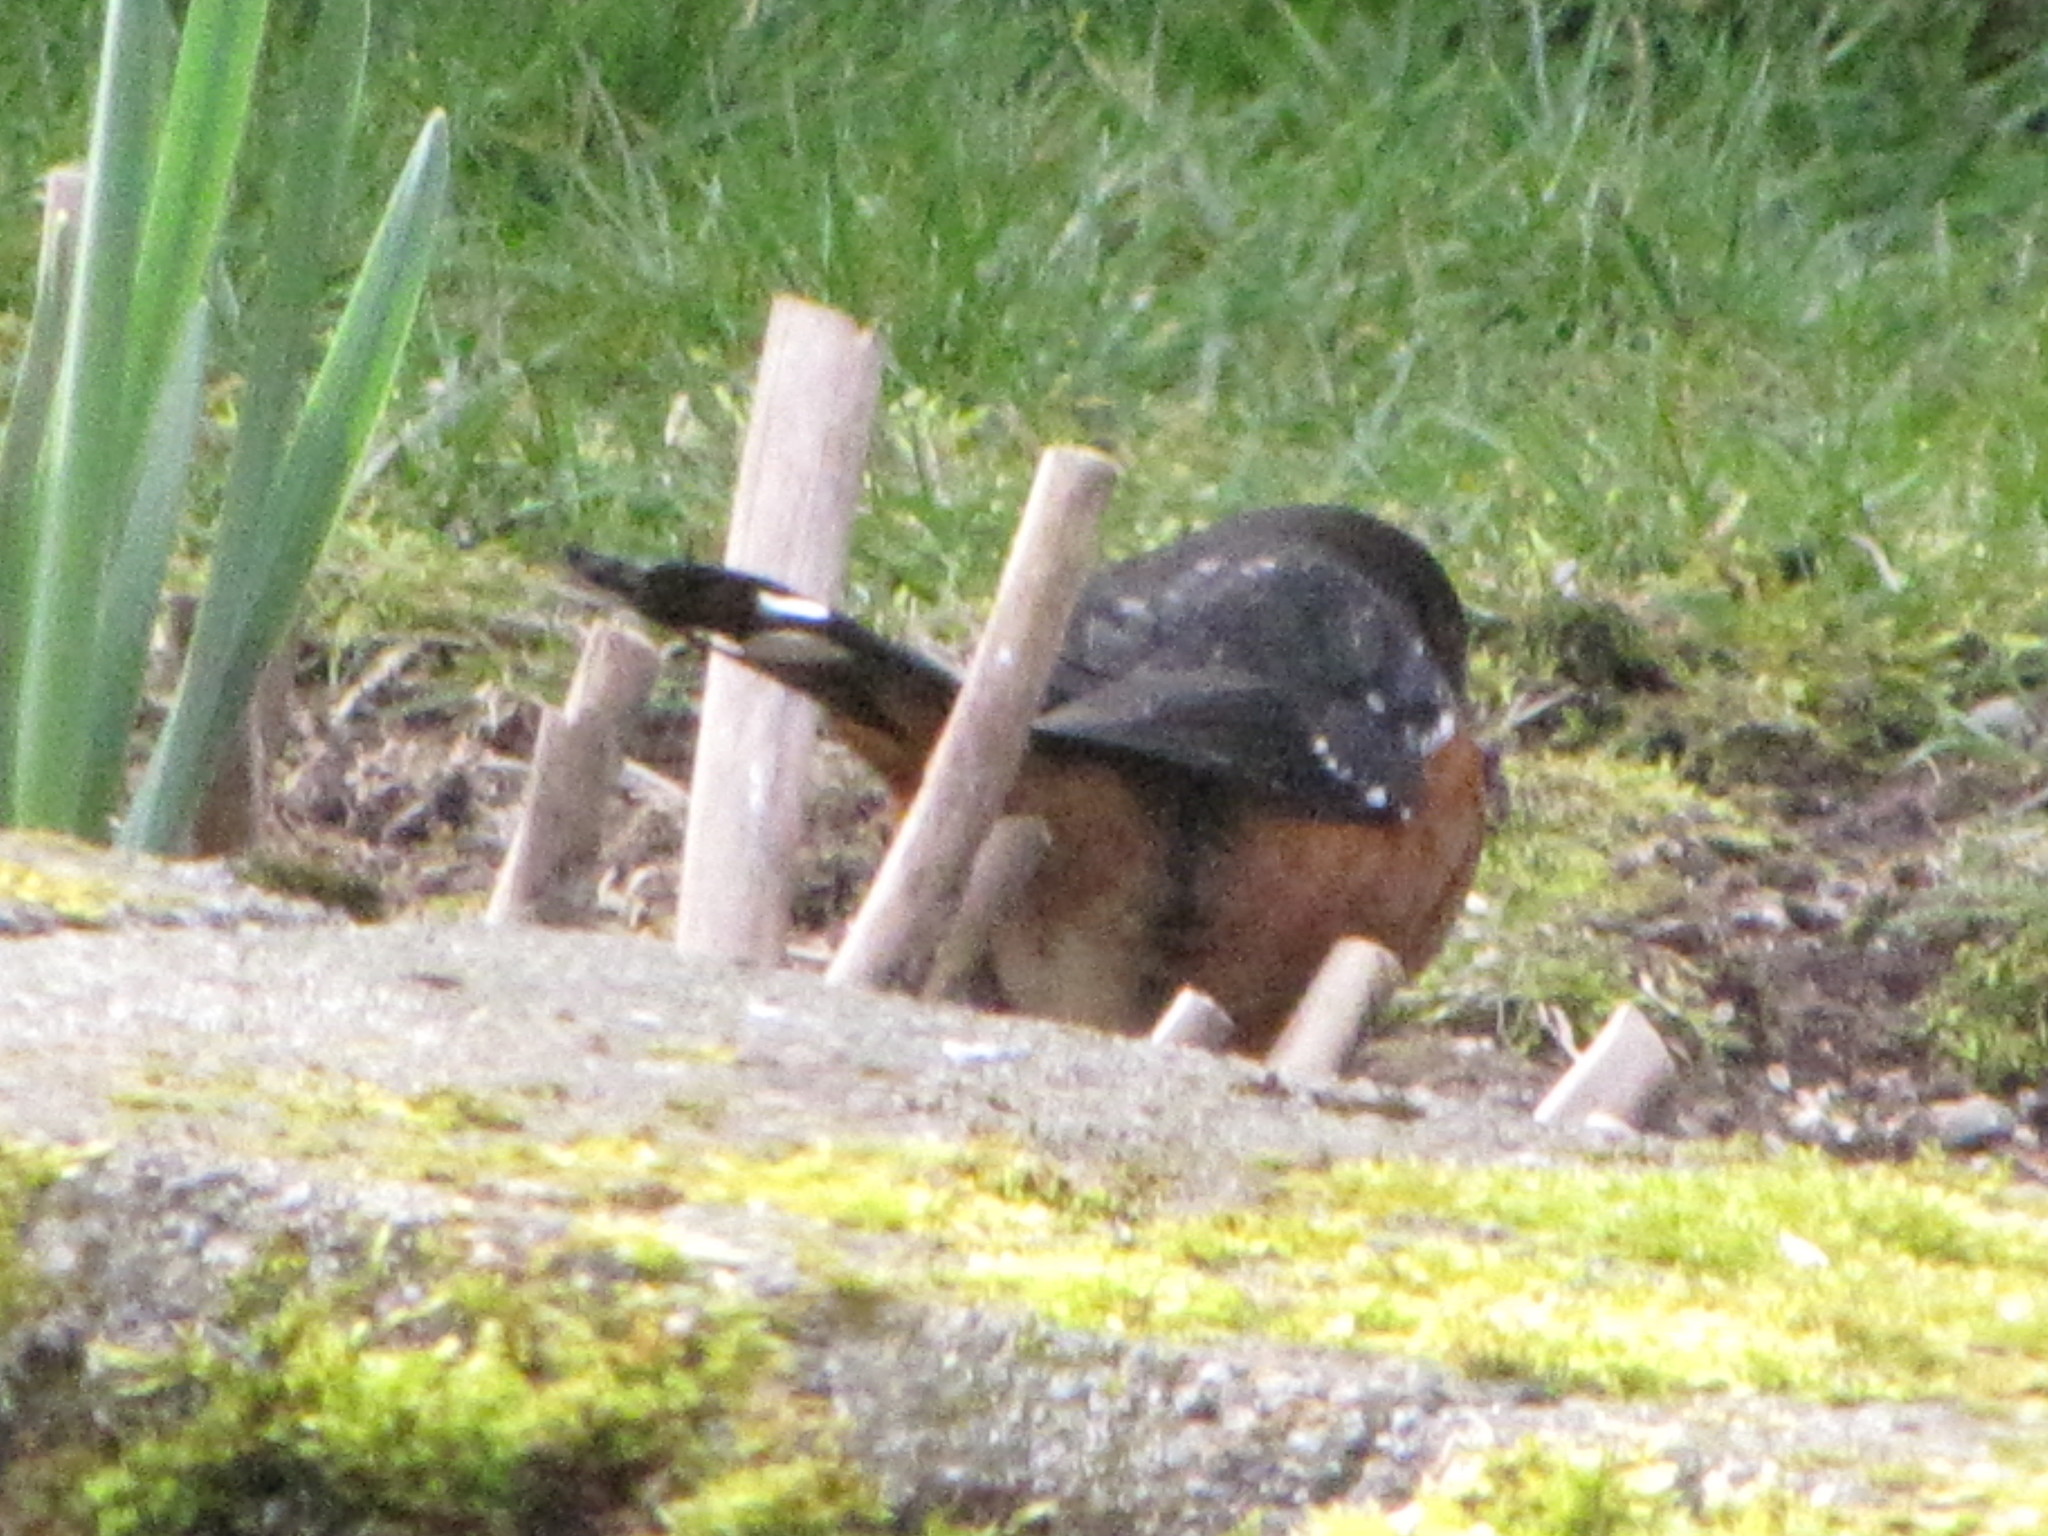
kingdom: Animalia
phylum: Chordata
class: Aves
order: Passeriformes
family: Passerellidae
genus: Pipilo
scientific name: Pipilo maculatus
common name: Spotted towhee
